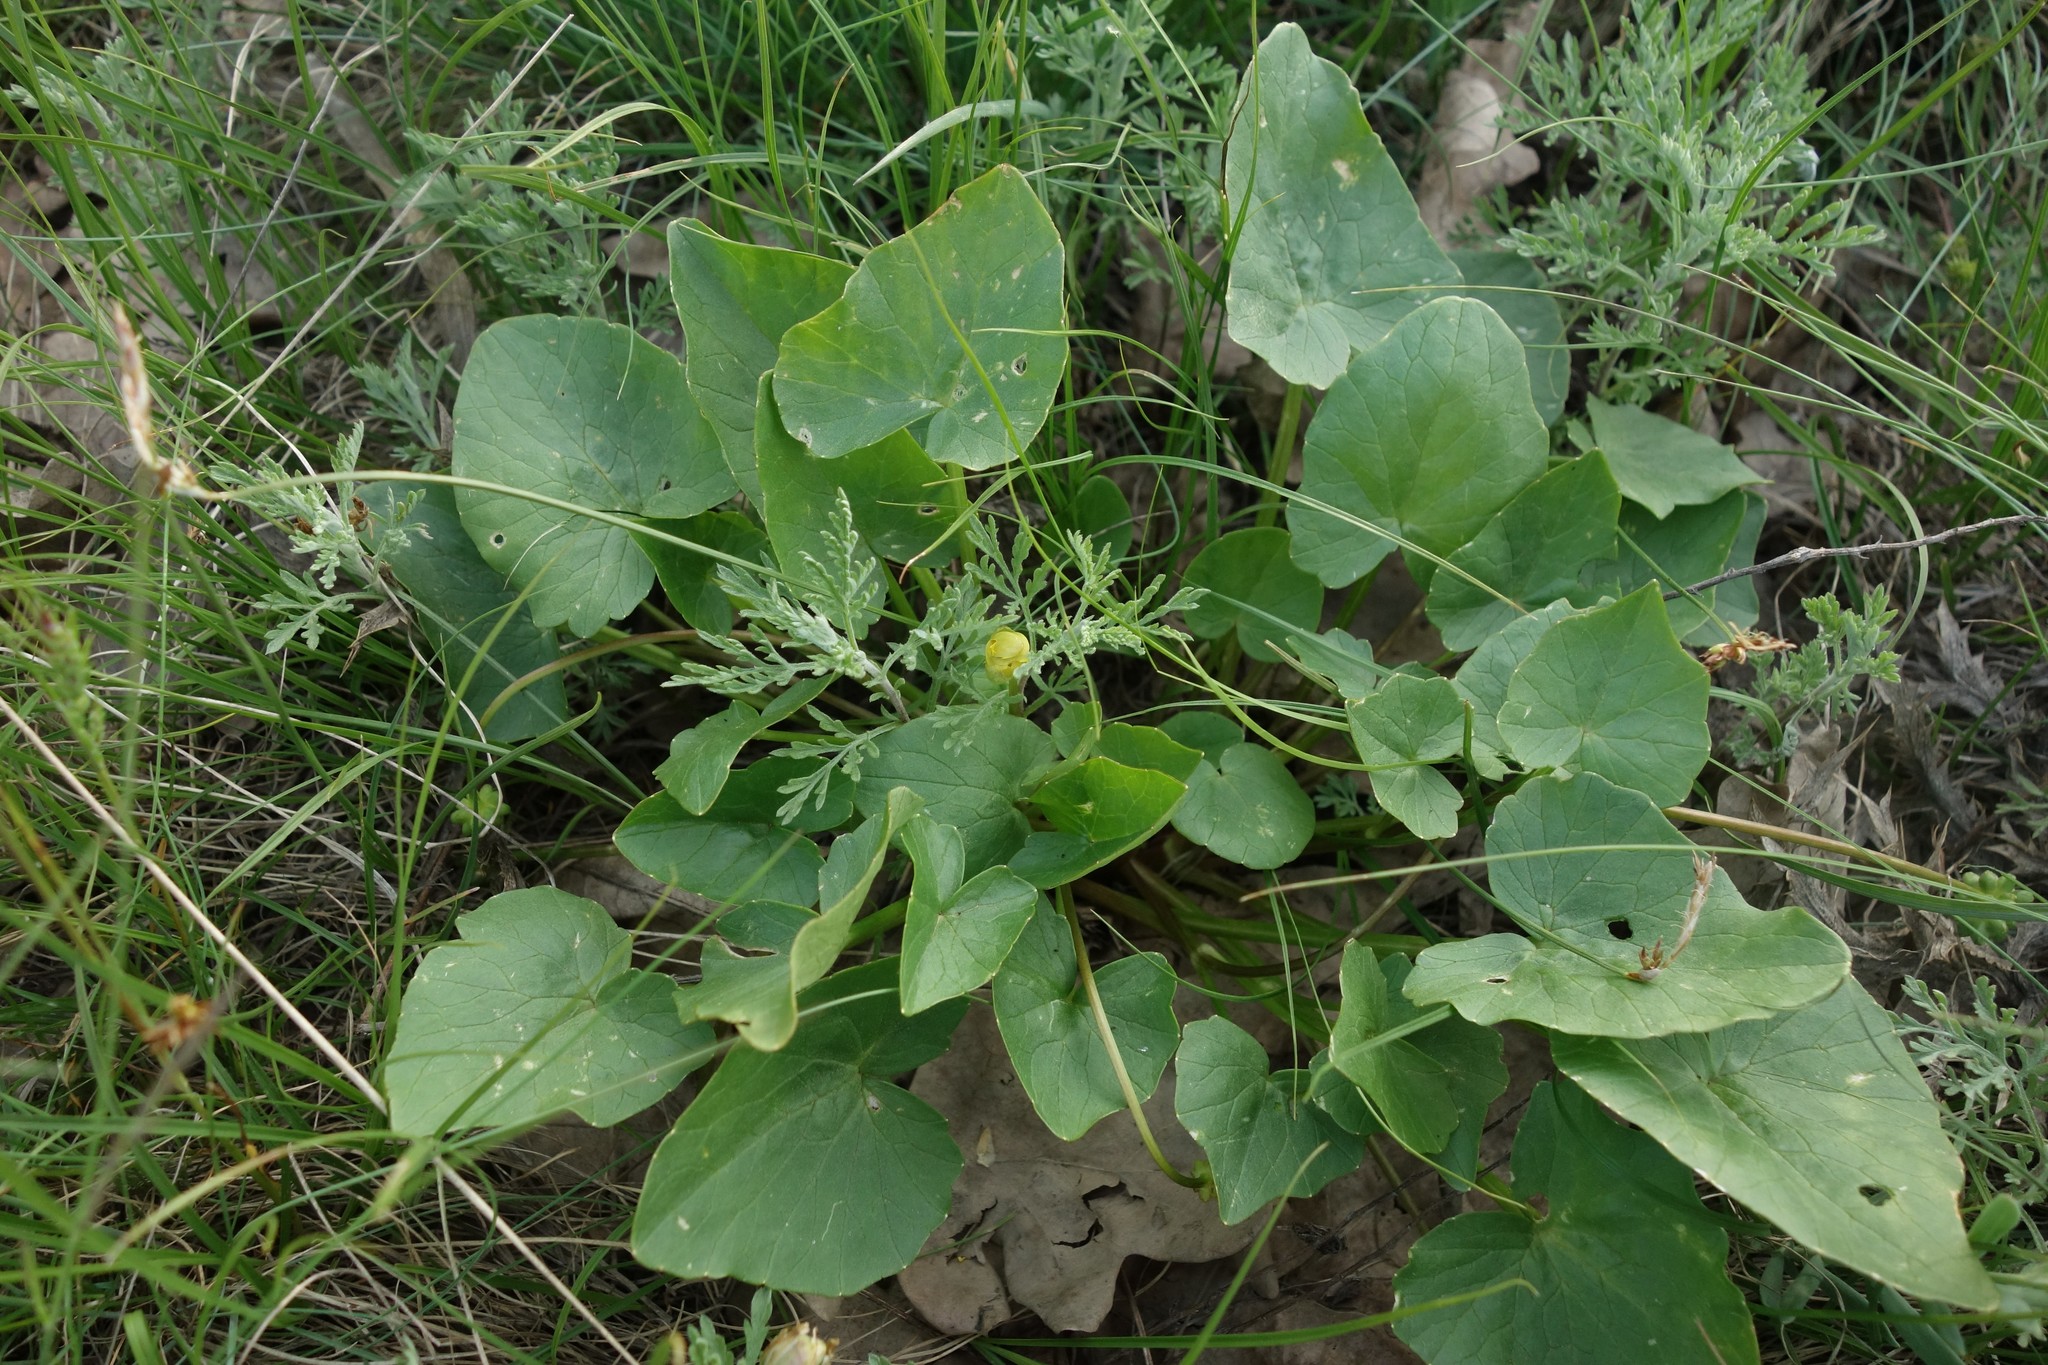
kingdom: Plantae
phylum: Tracheophyta
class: Magnoliopsida
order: Ranunculales
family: Ranunculaceae
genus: Ficaria
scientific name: Ficaria verna
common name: Lesser celandine
